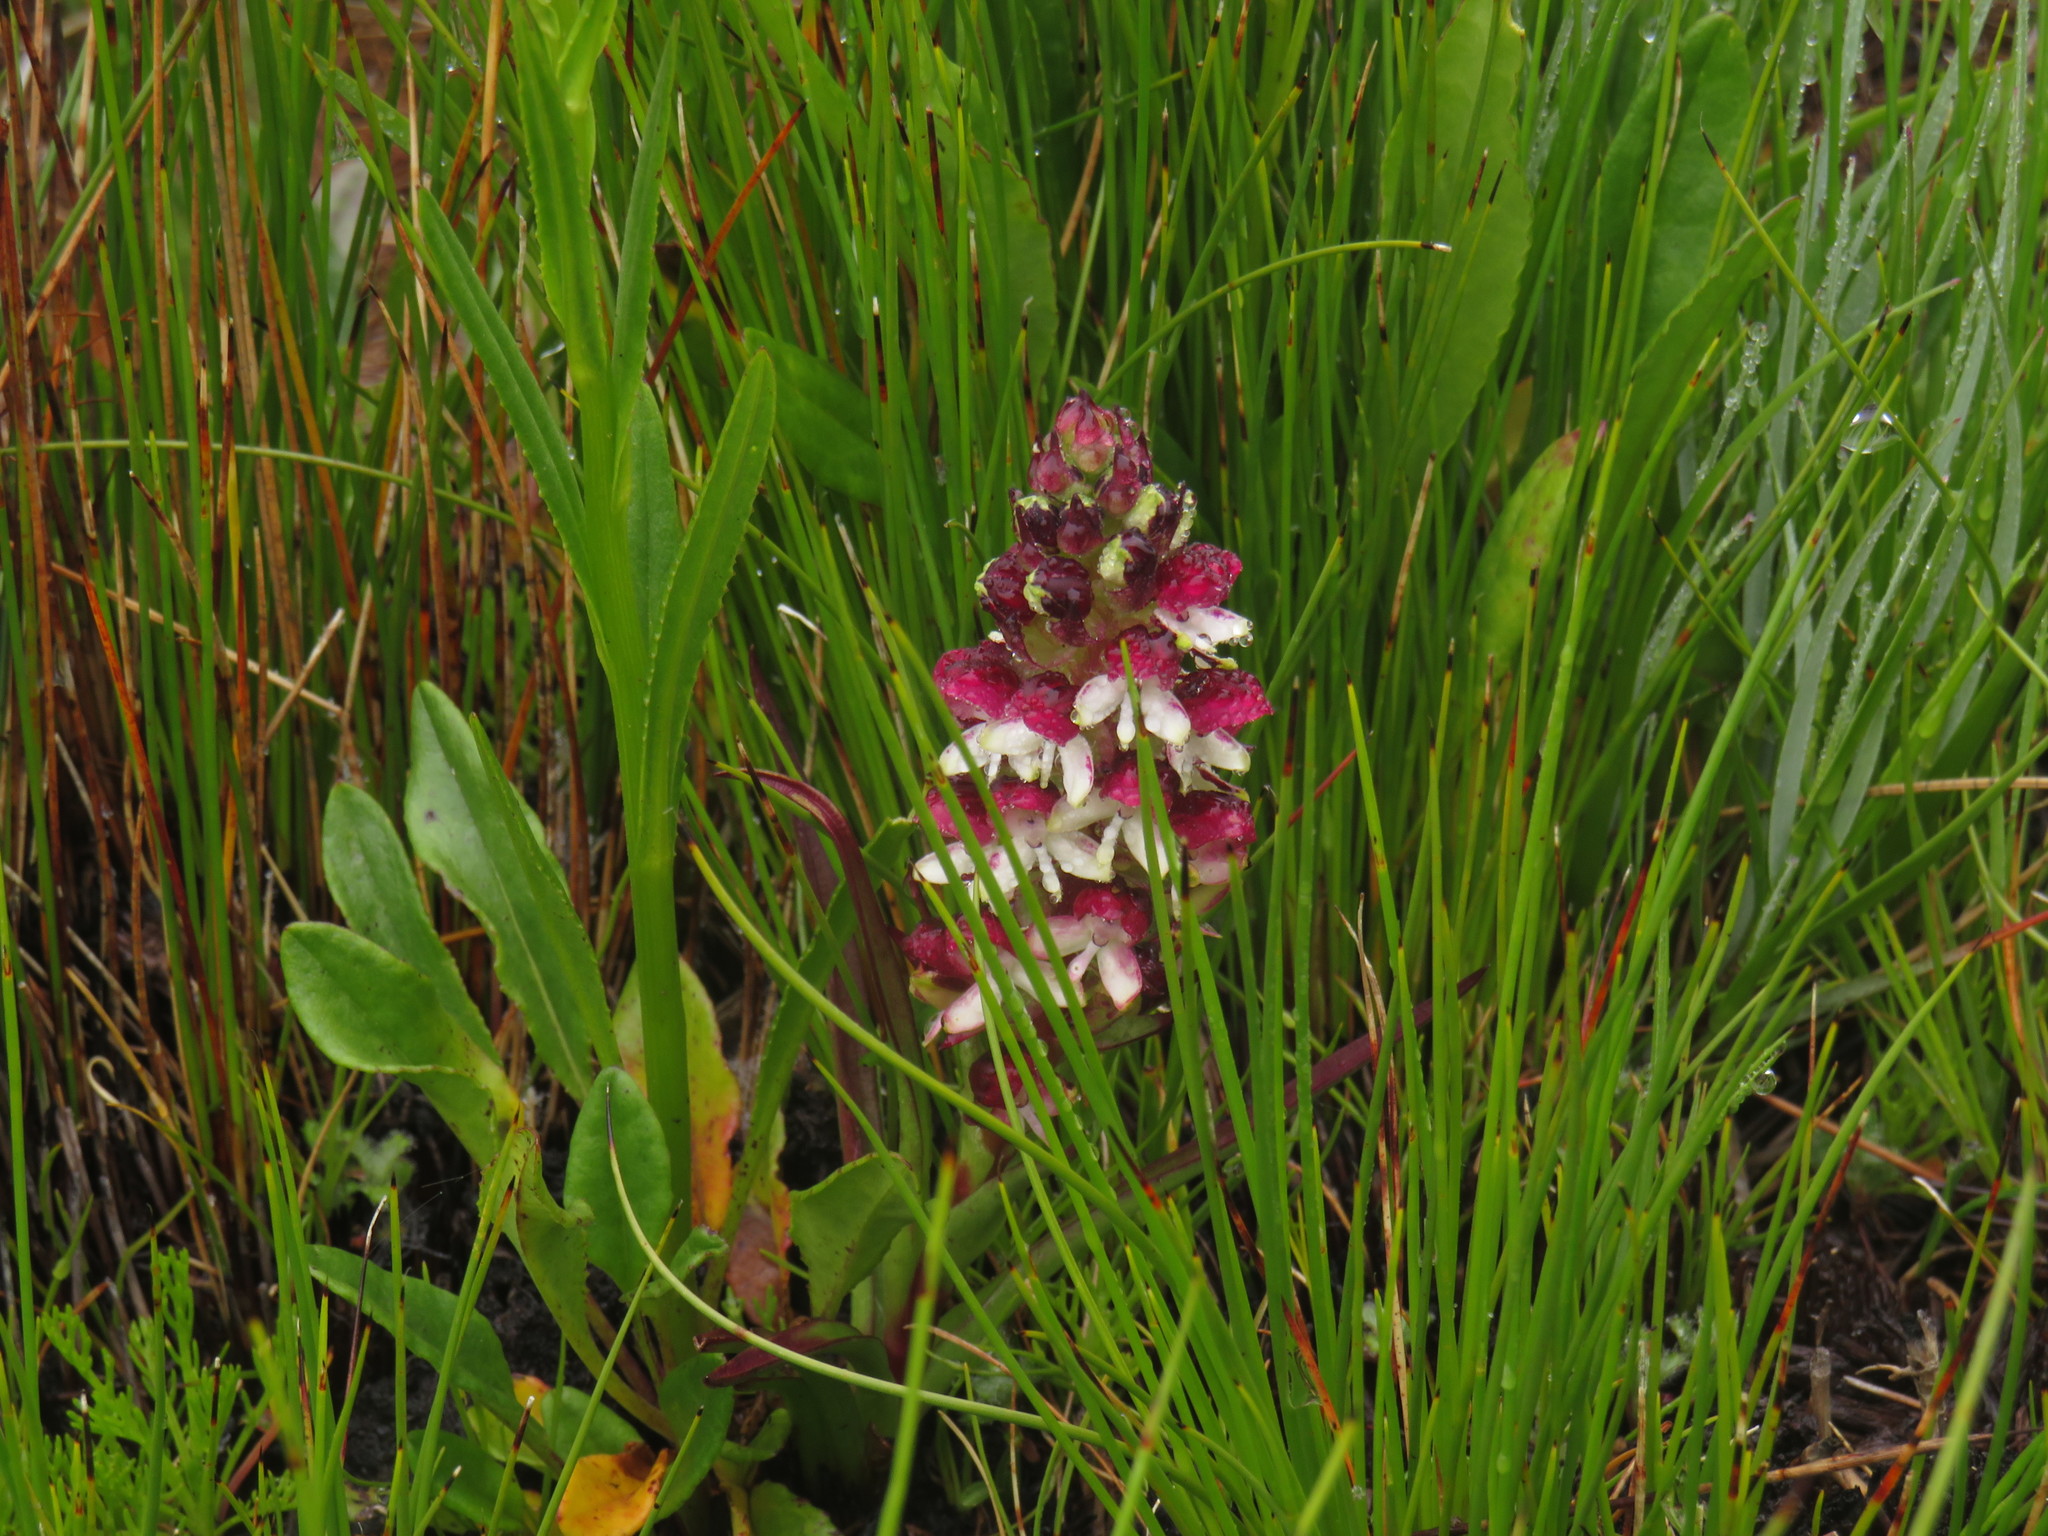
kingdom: Plantae
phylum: Tracheophyta
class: Liliopsida
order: Asparagales
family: Orchidaceae
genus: Disa
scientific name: Disa albomagentea
